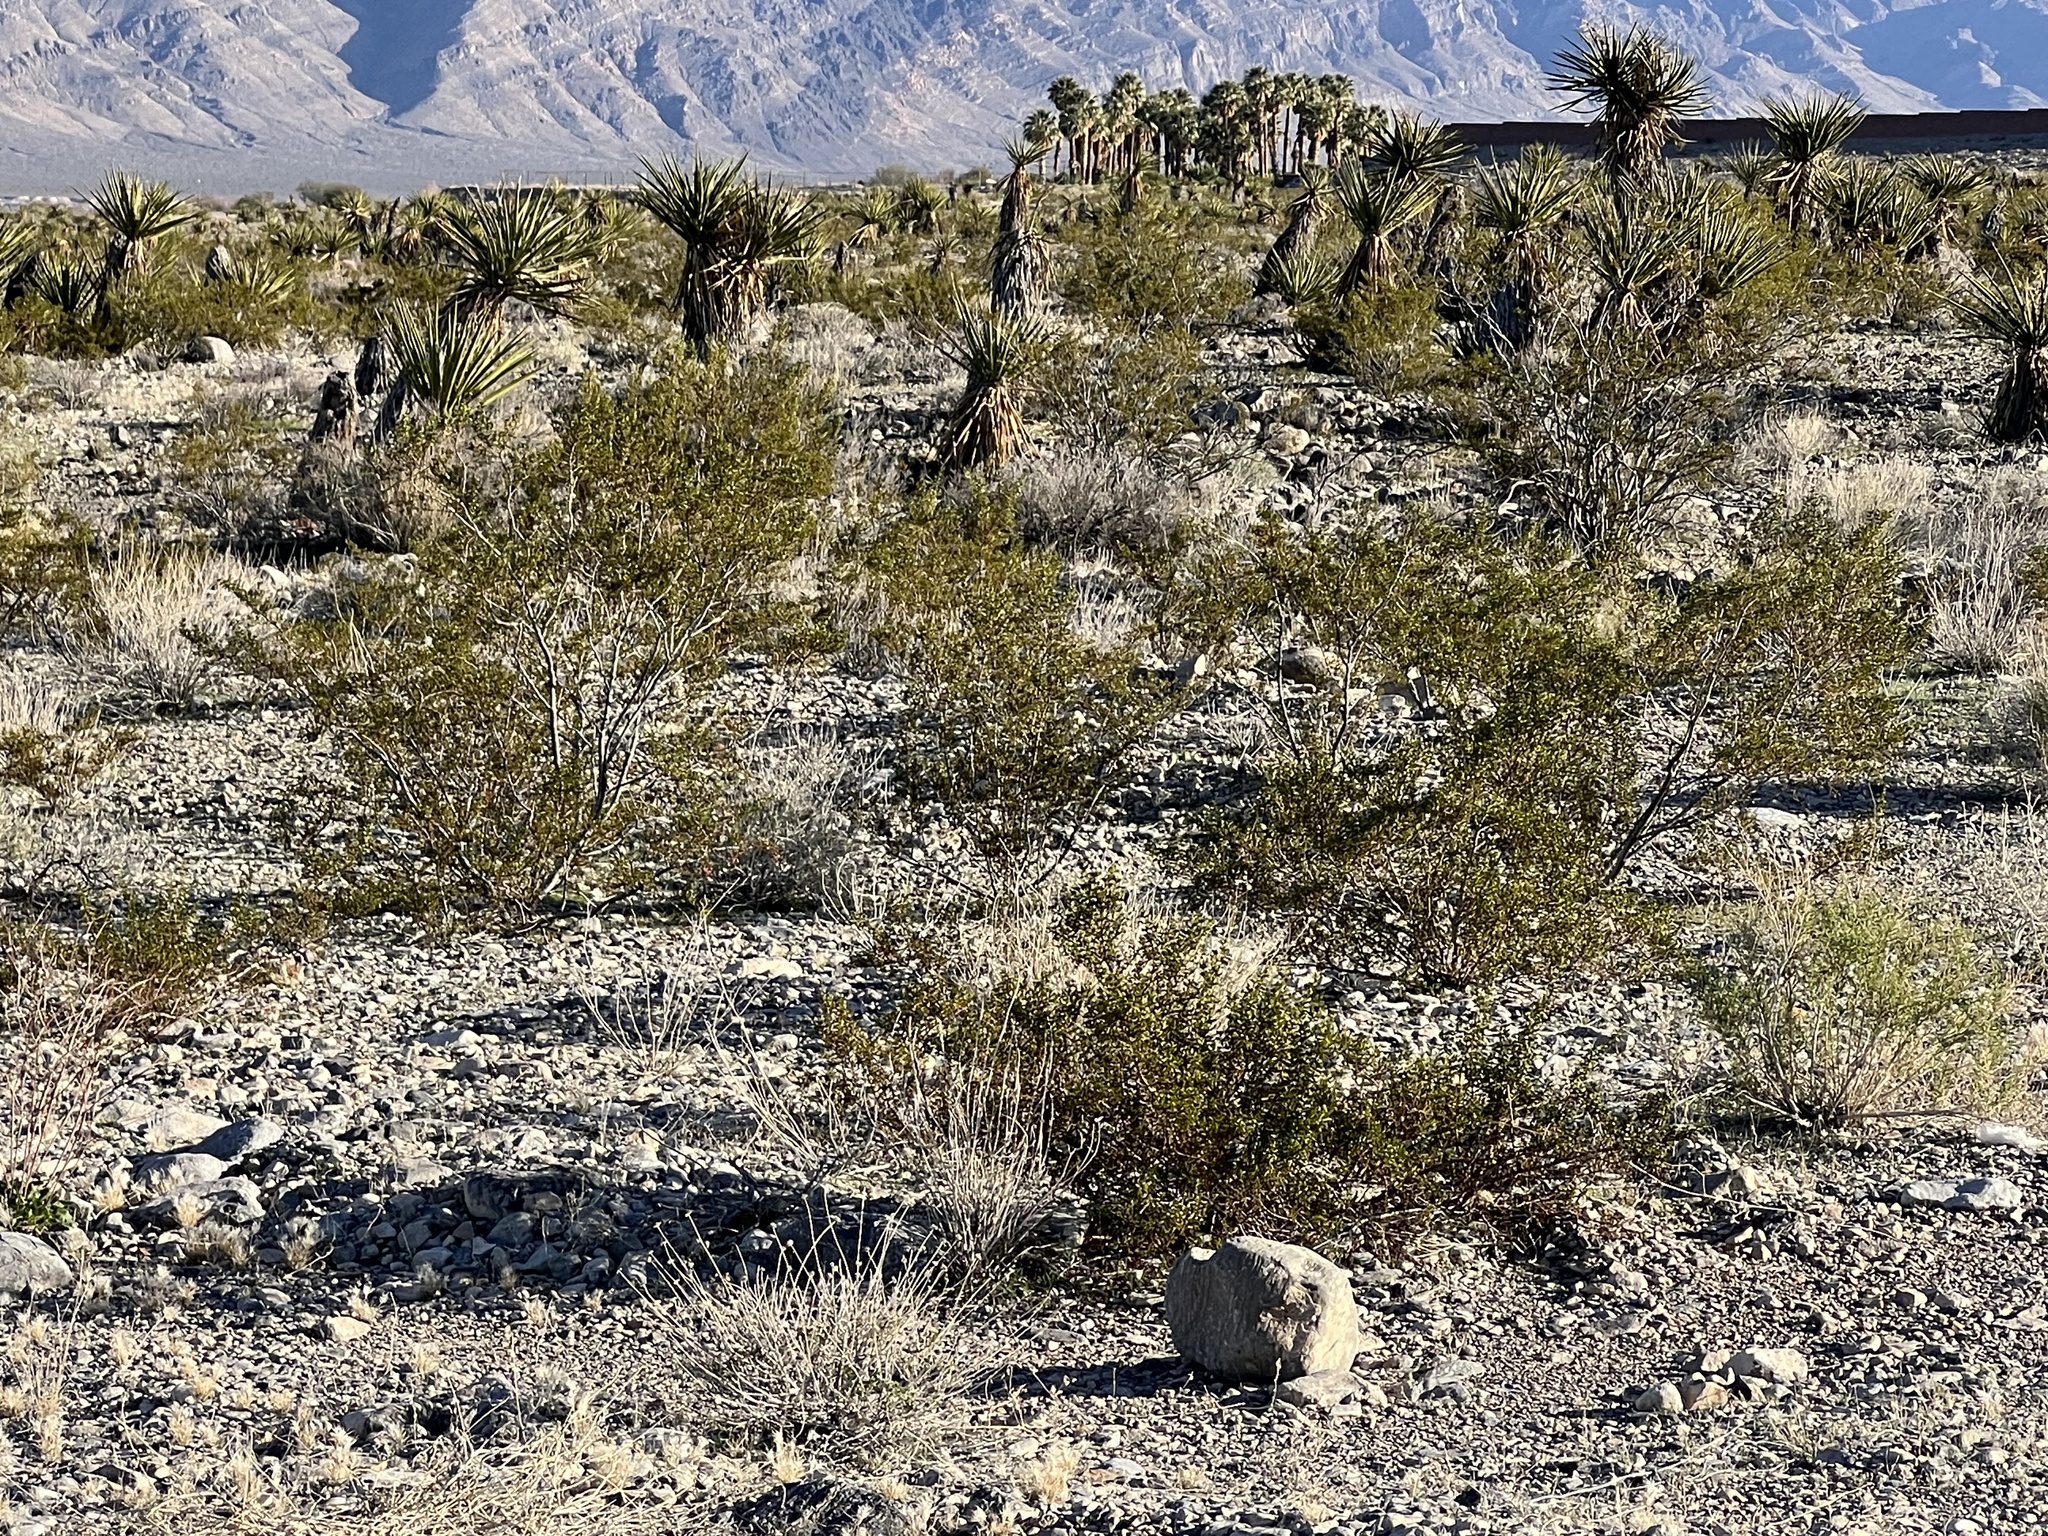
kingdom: Plantae
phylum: Tracheophyta
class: Magnoliopsida
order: Zygophyllales
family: Zygophyllaceae
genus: Larrea
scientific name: Larrea tridentata
